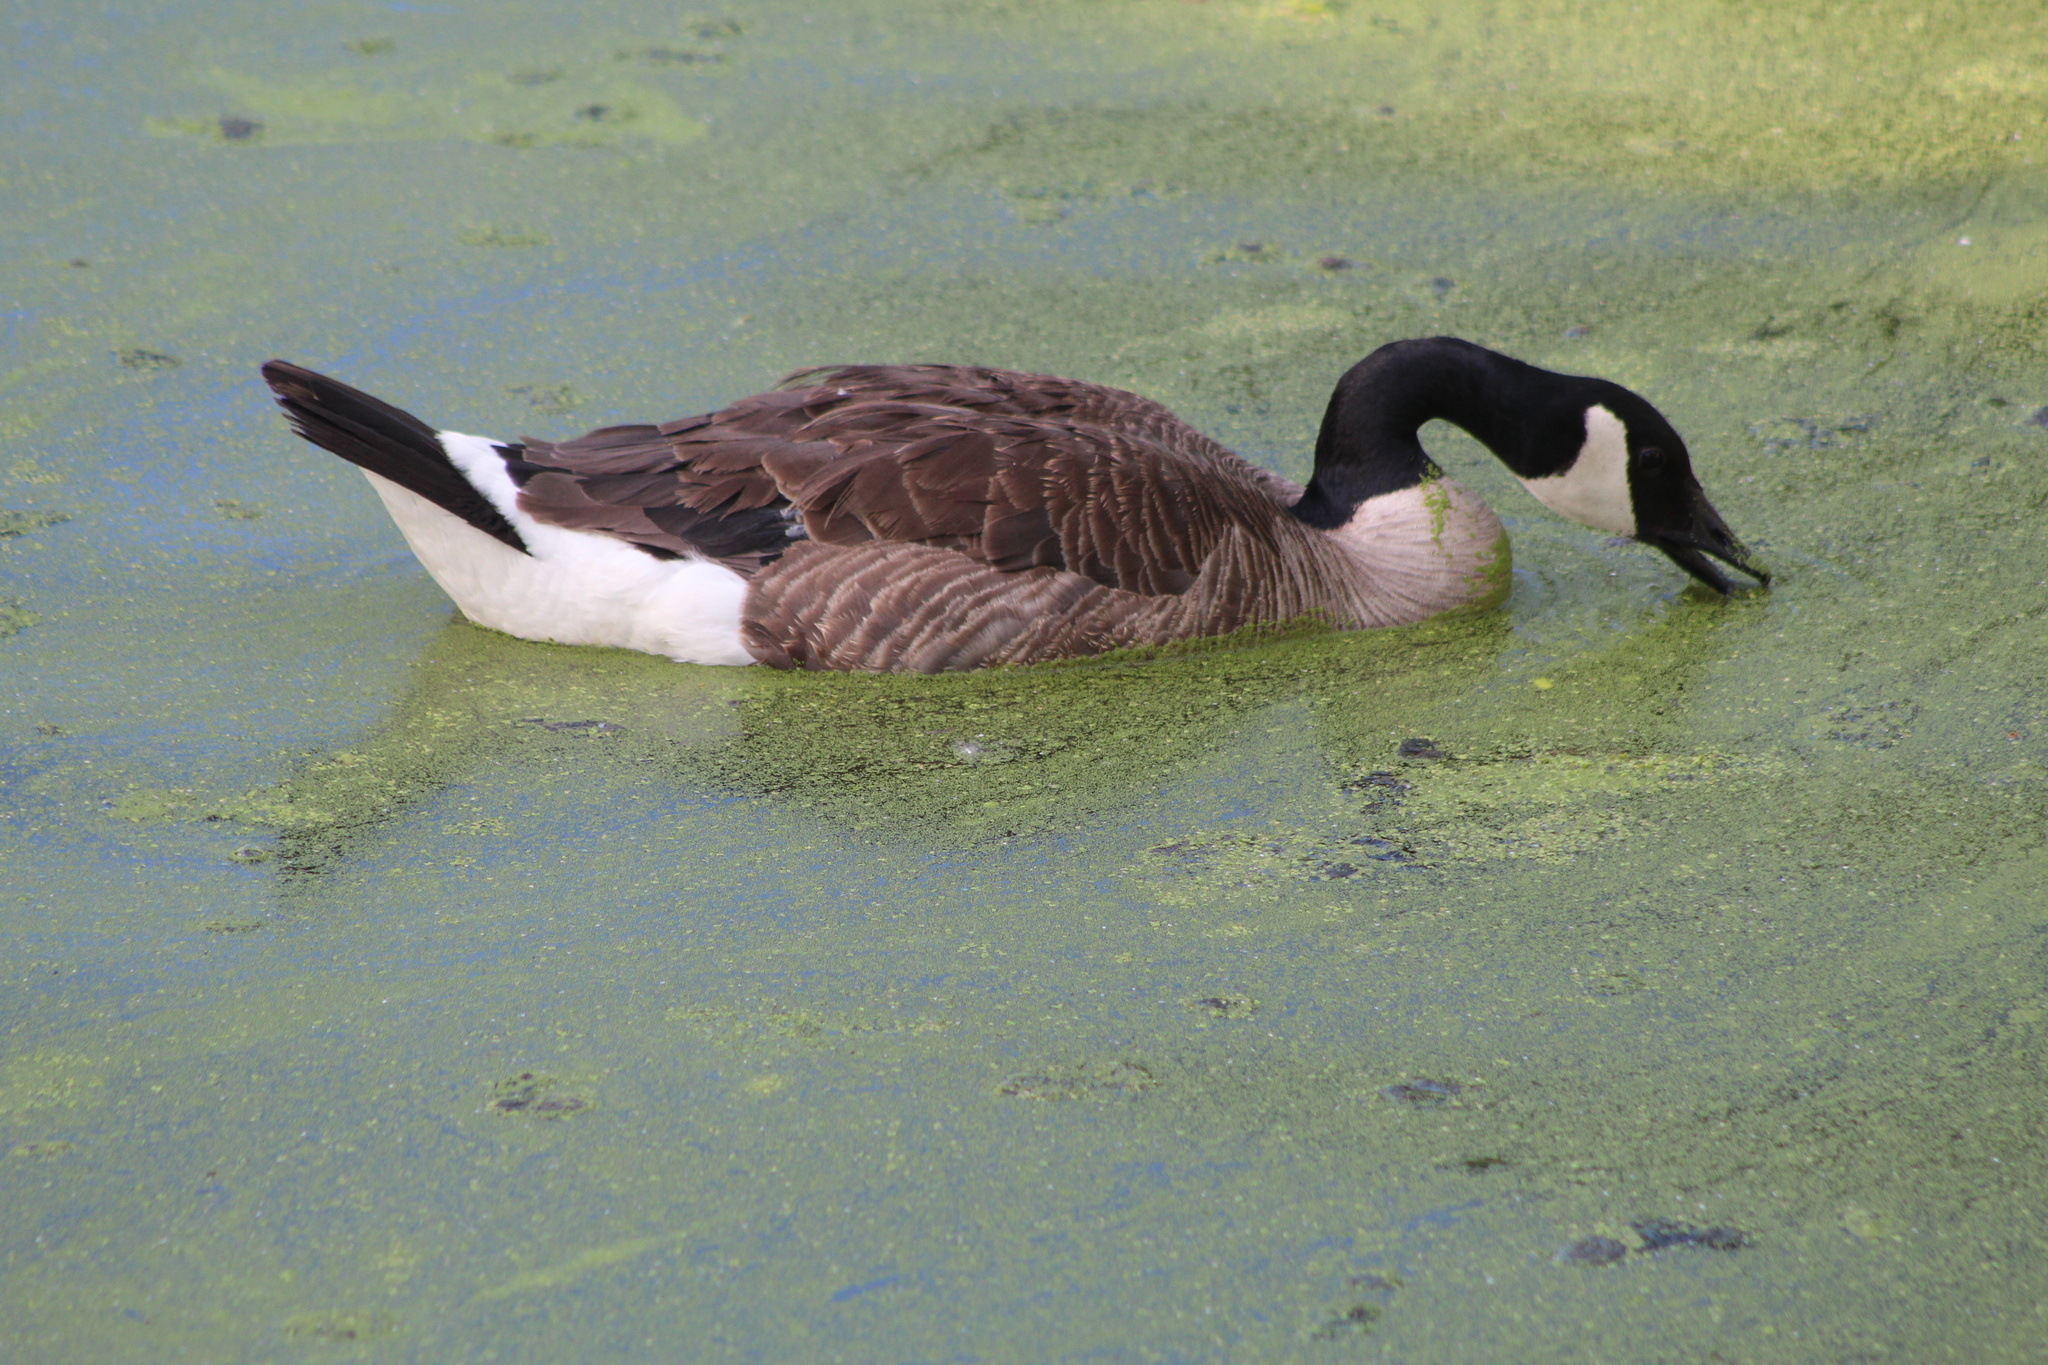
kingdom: Animalia
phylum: Chordata
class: Aves
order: Anseriformes
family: Anatidae
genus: Branta
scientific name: Branta canadensis
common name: Canada goose
